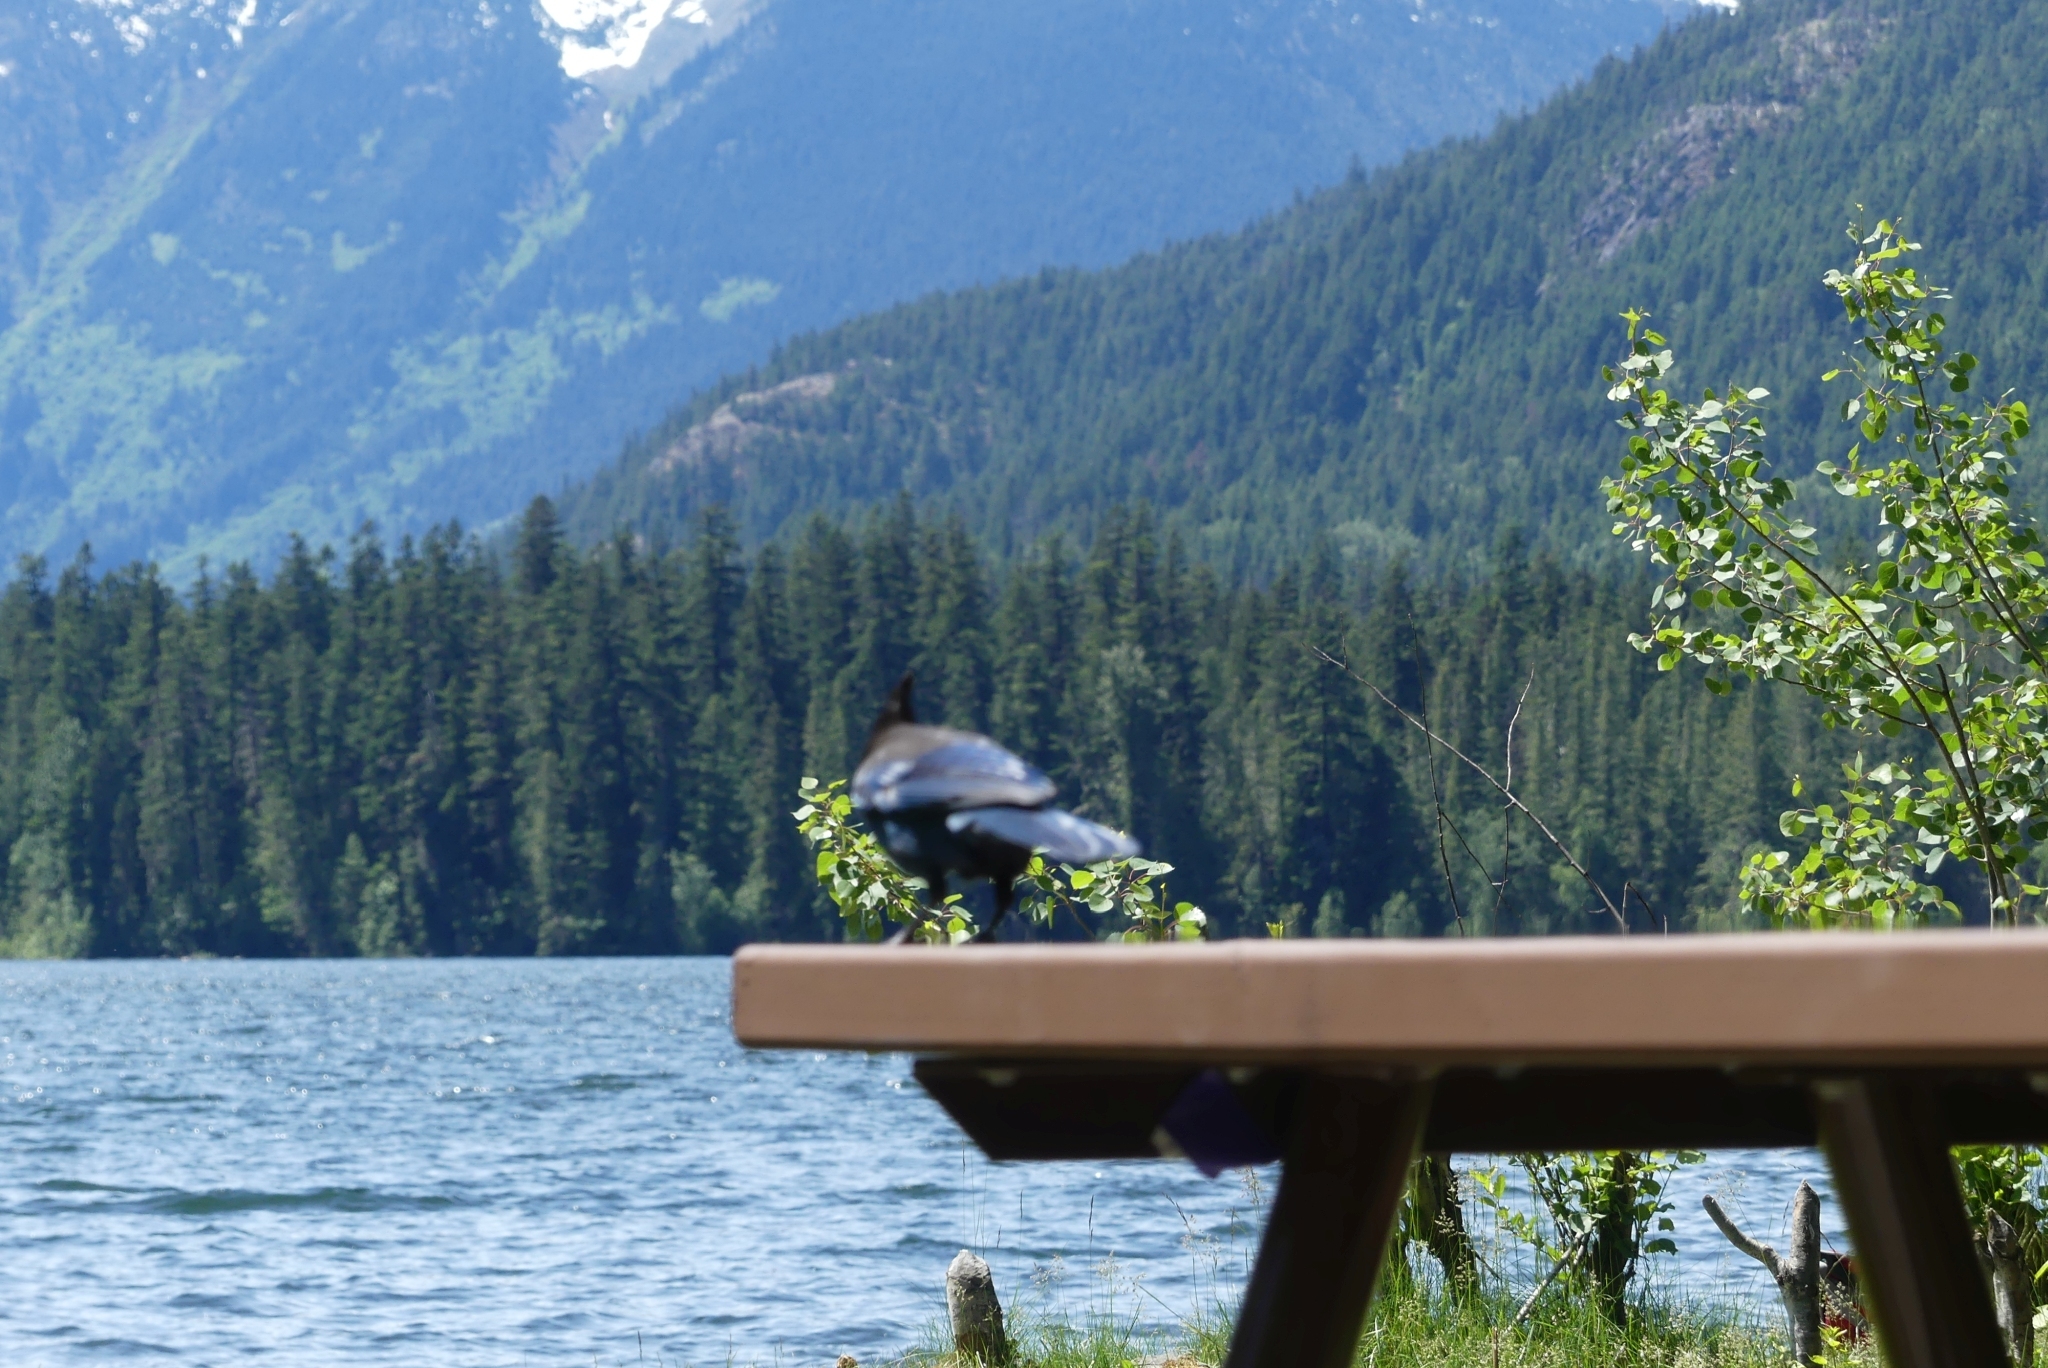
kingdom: Animalia
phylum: Chordata
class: Aves
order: Passeriformes
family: Corvidae
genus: Cyanocitta
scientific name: Cyanocitta stelleri
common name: Steller's jay
